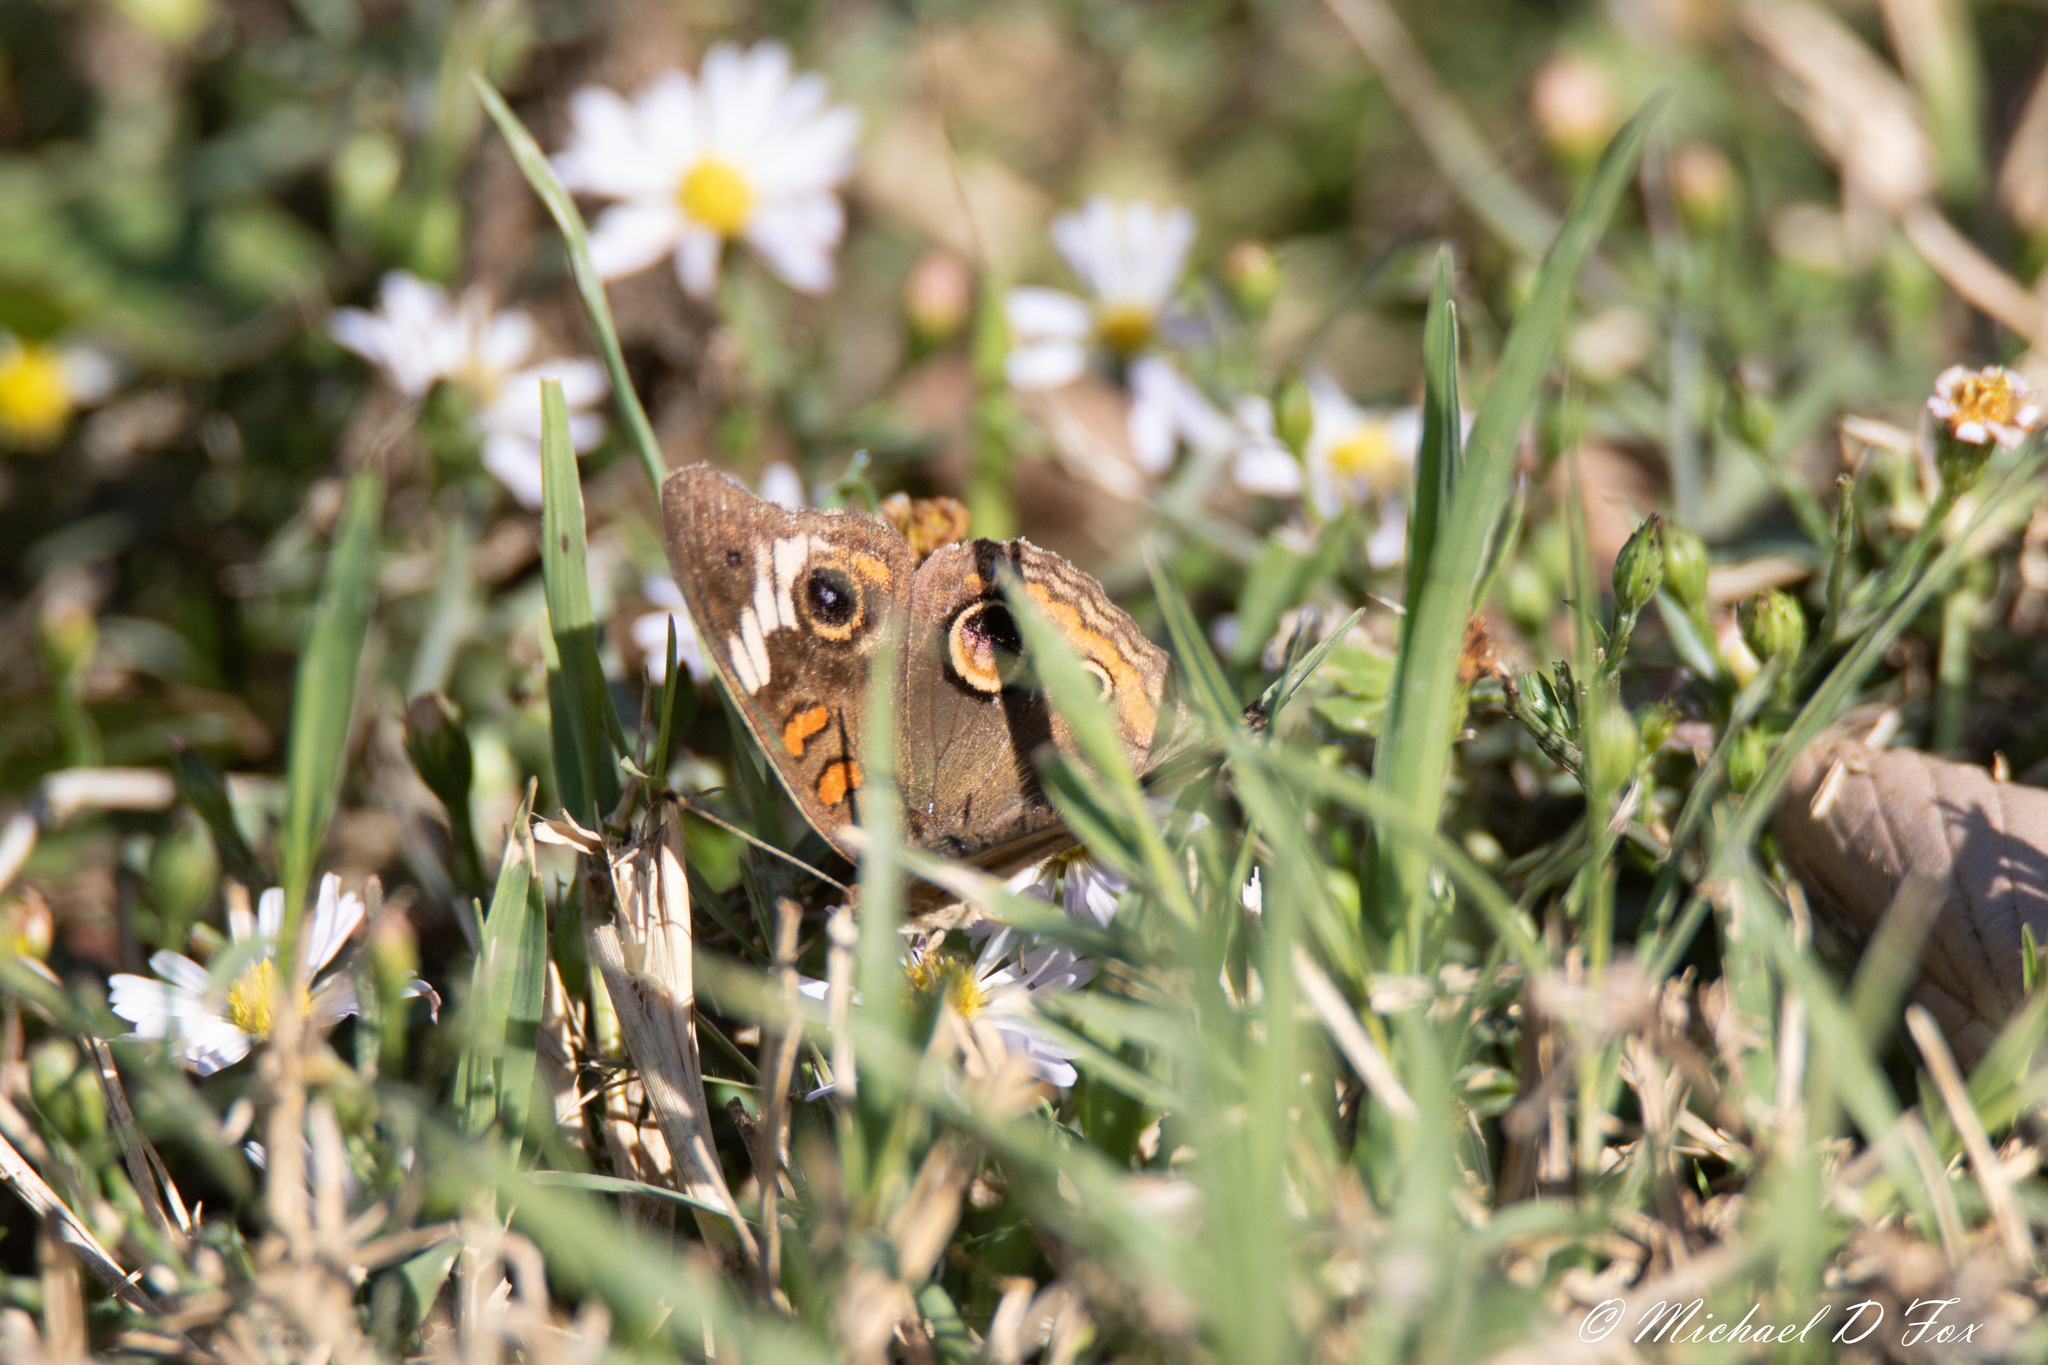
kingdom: Animalia
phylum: Arthropoda
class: Insecta
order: Lepidoptera
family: Nymphalidae
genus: Junonia
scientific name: Junonia coenia
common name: Common buckeye
